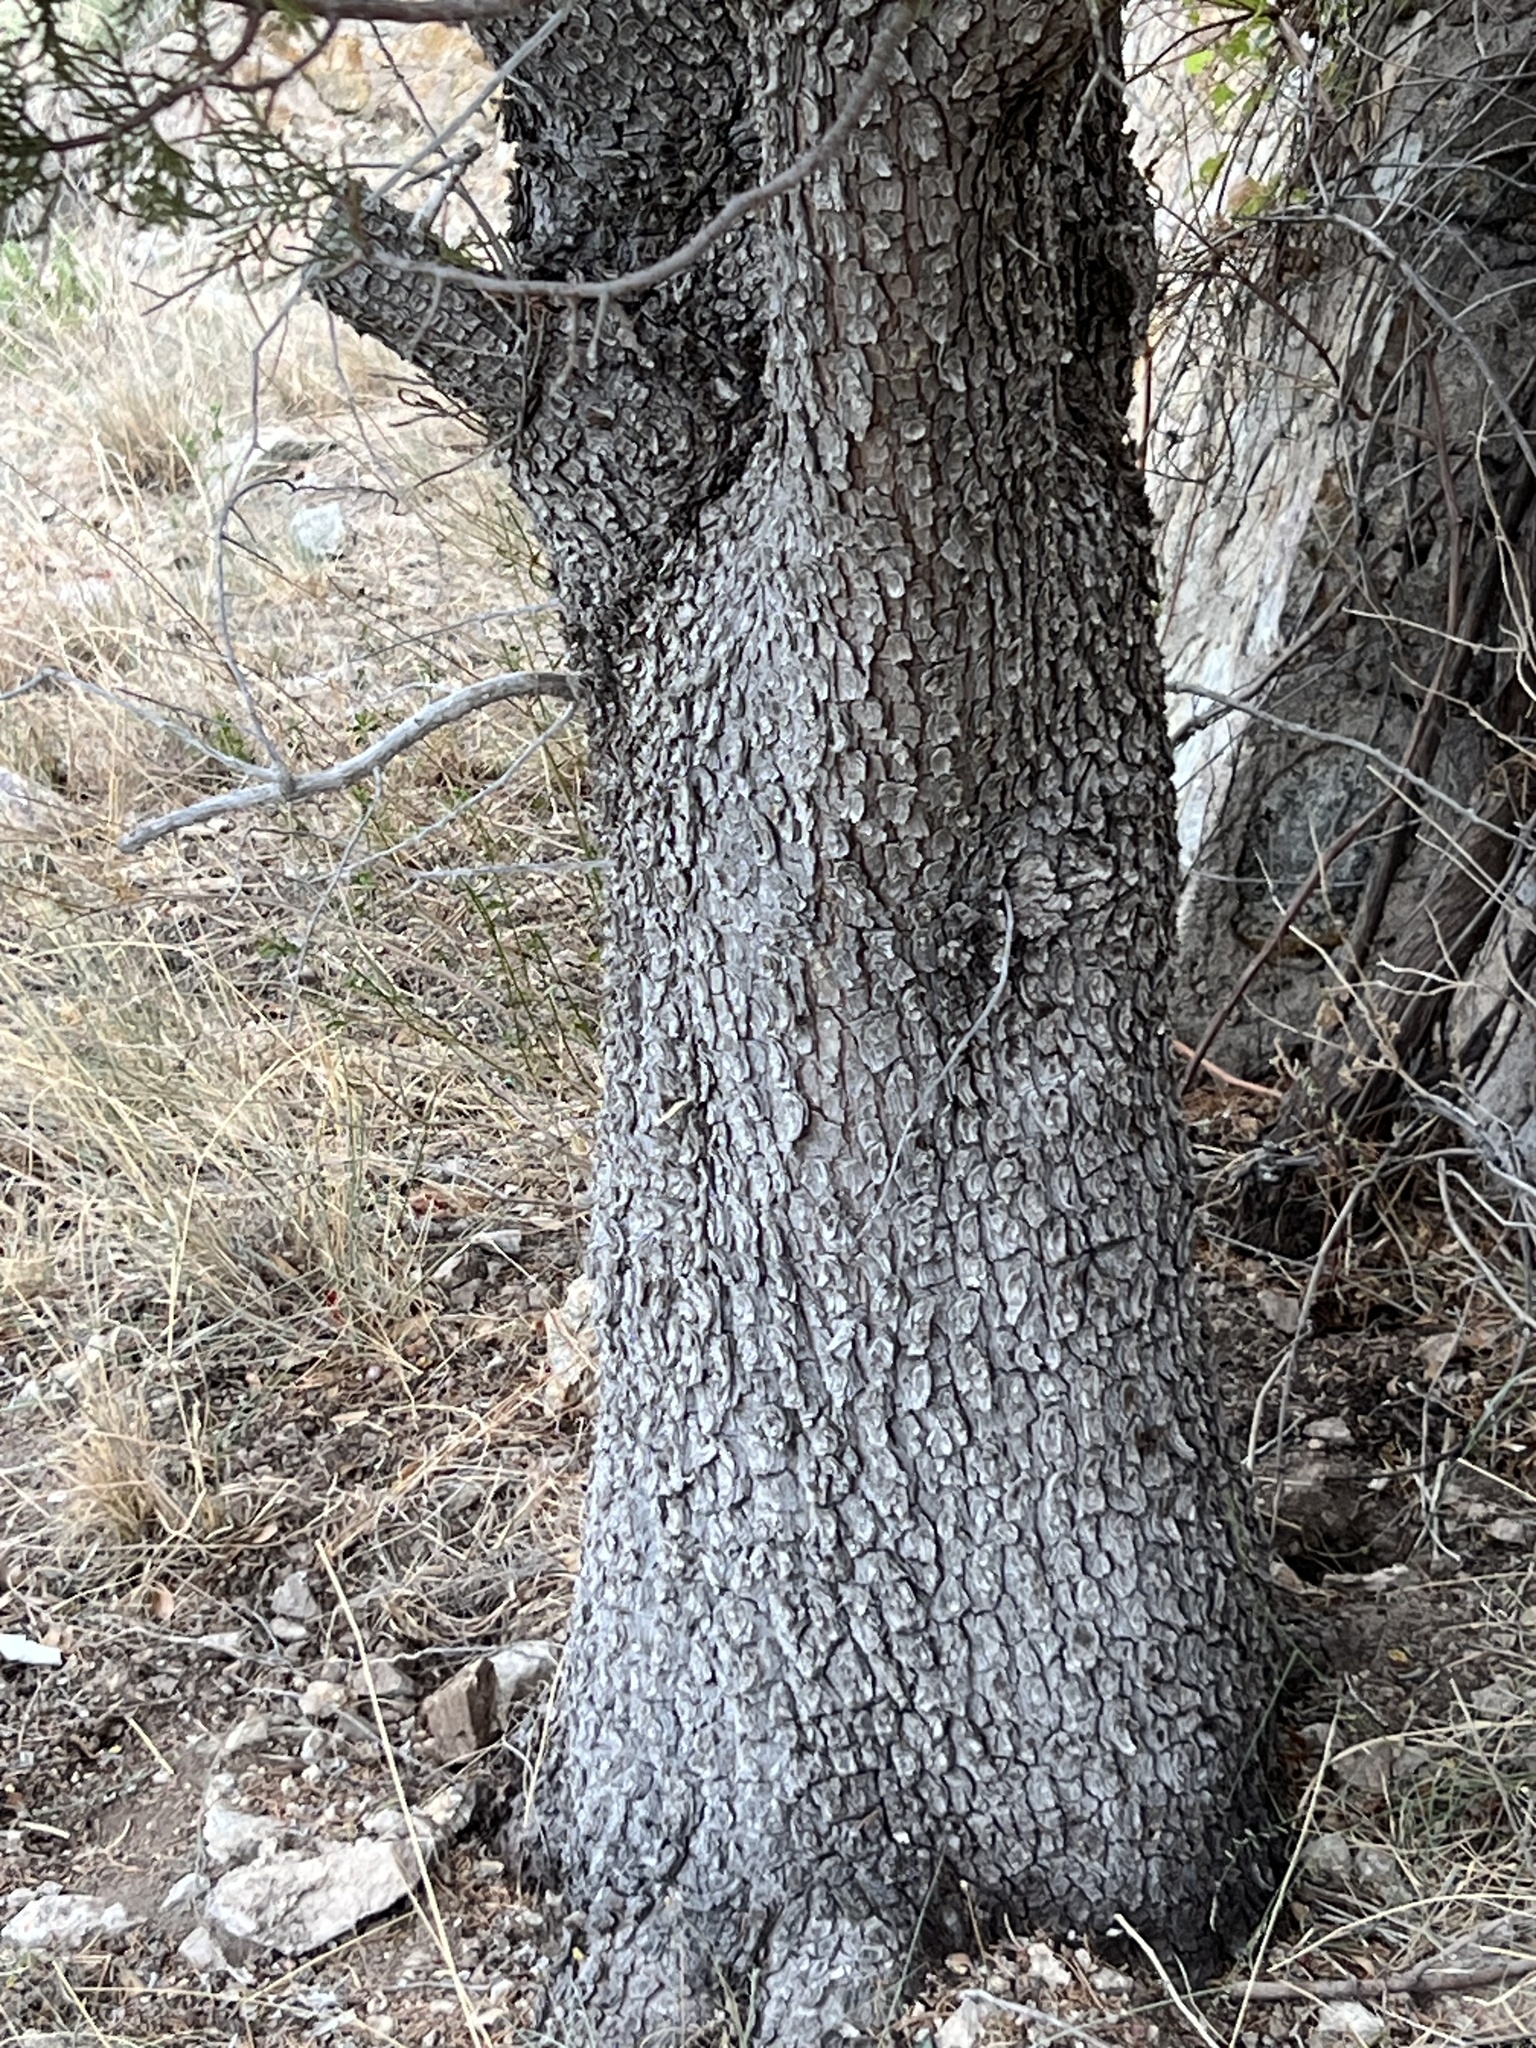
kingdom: Plantae
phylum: Tracheophyta
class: Pinopsida
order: Pinales
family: Cupressaceae
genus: Juniperus
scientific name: Juniperus deppeana
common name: Alligator juniper
